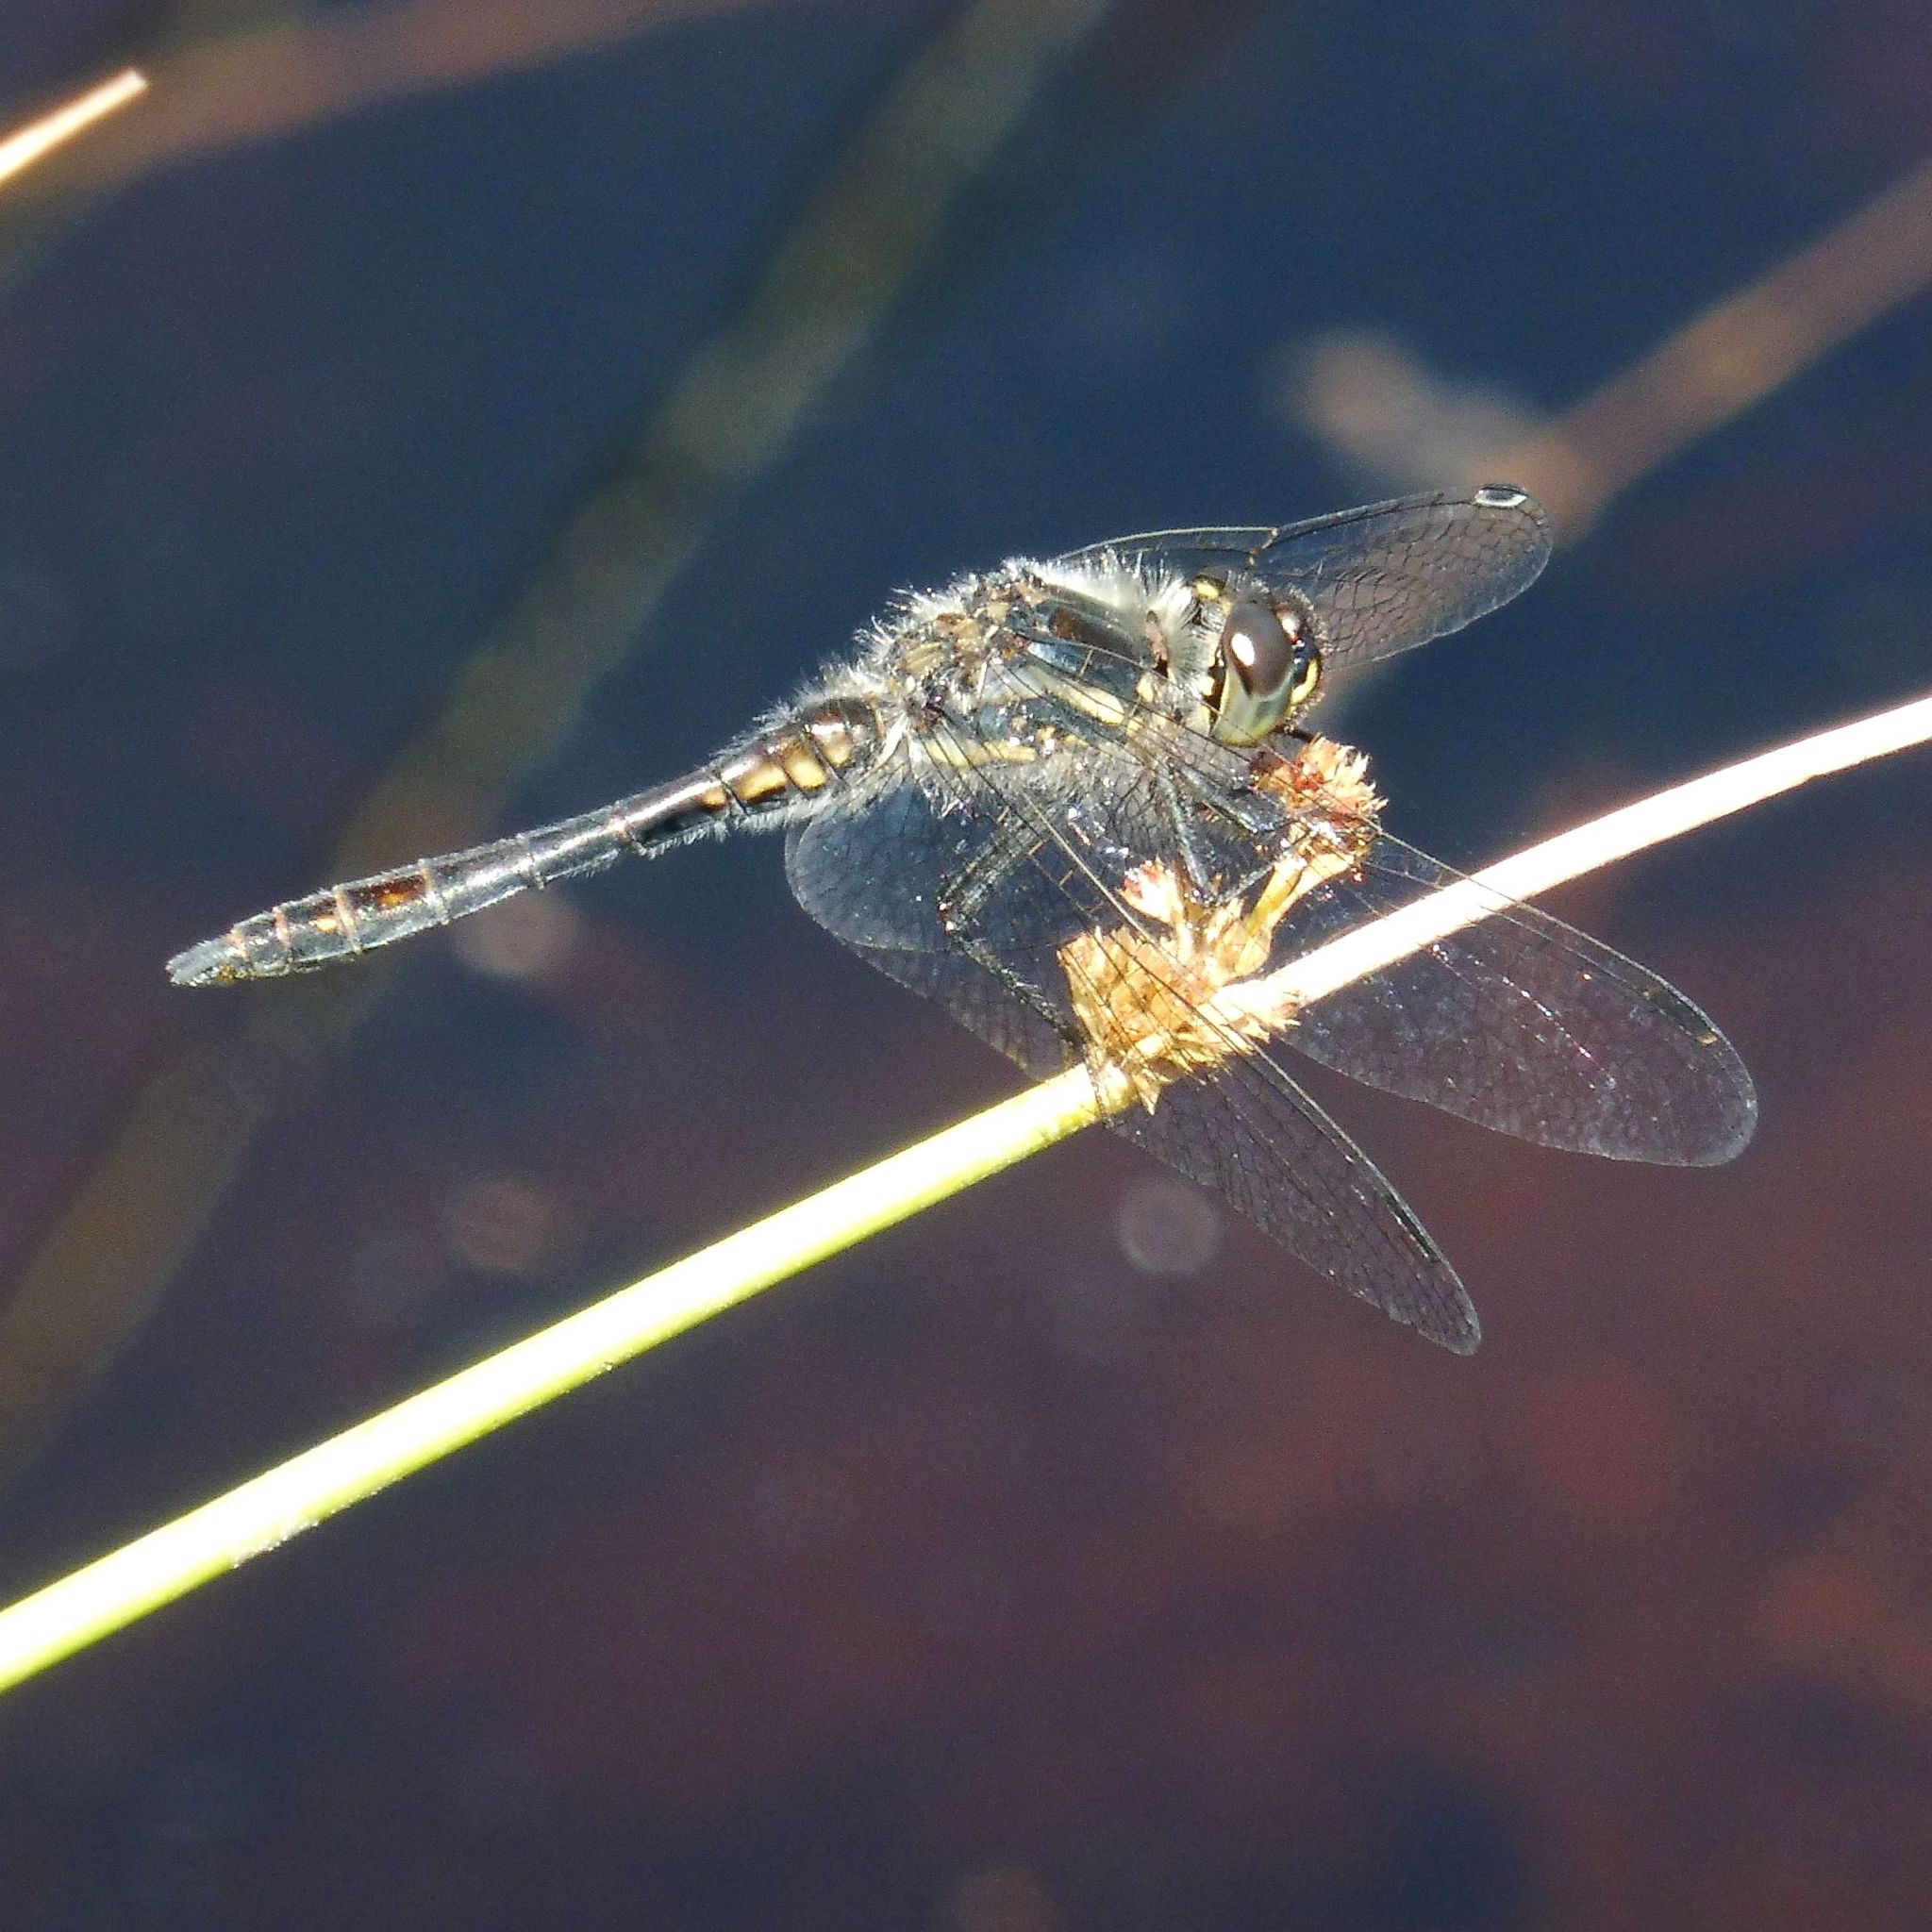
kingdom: Animalia
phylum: Arthropoda
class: Insecta
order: Odonata
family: Libellulidae
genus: Sympetrum
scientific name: Sympetrum danae
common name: Black darter
